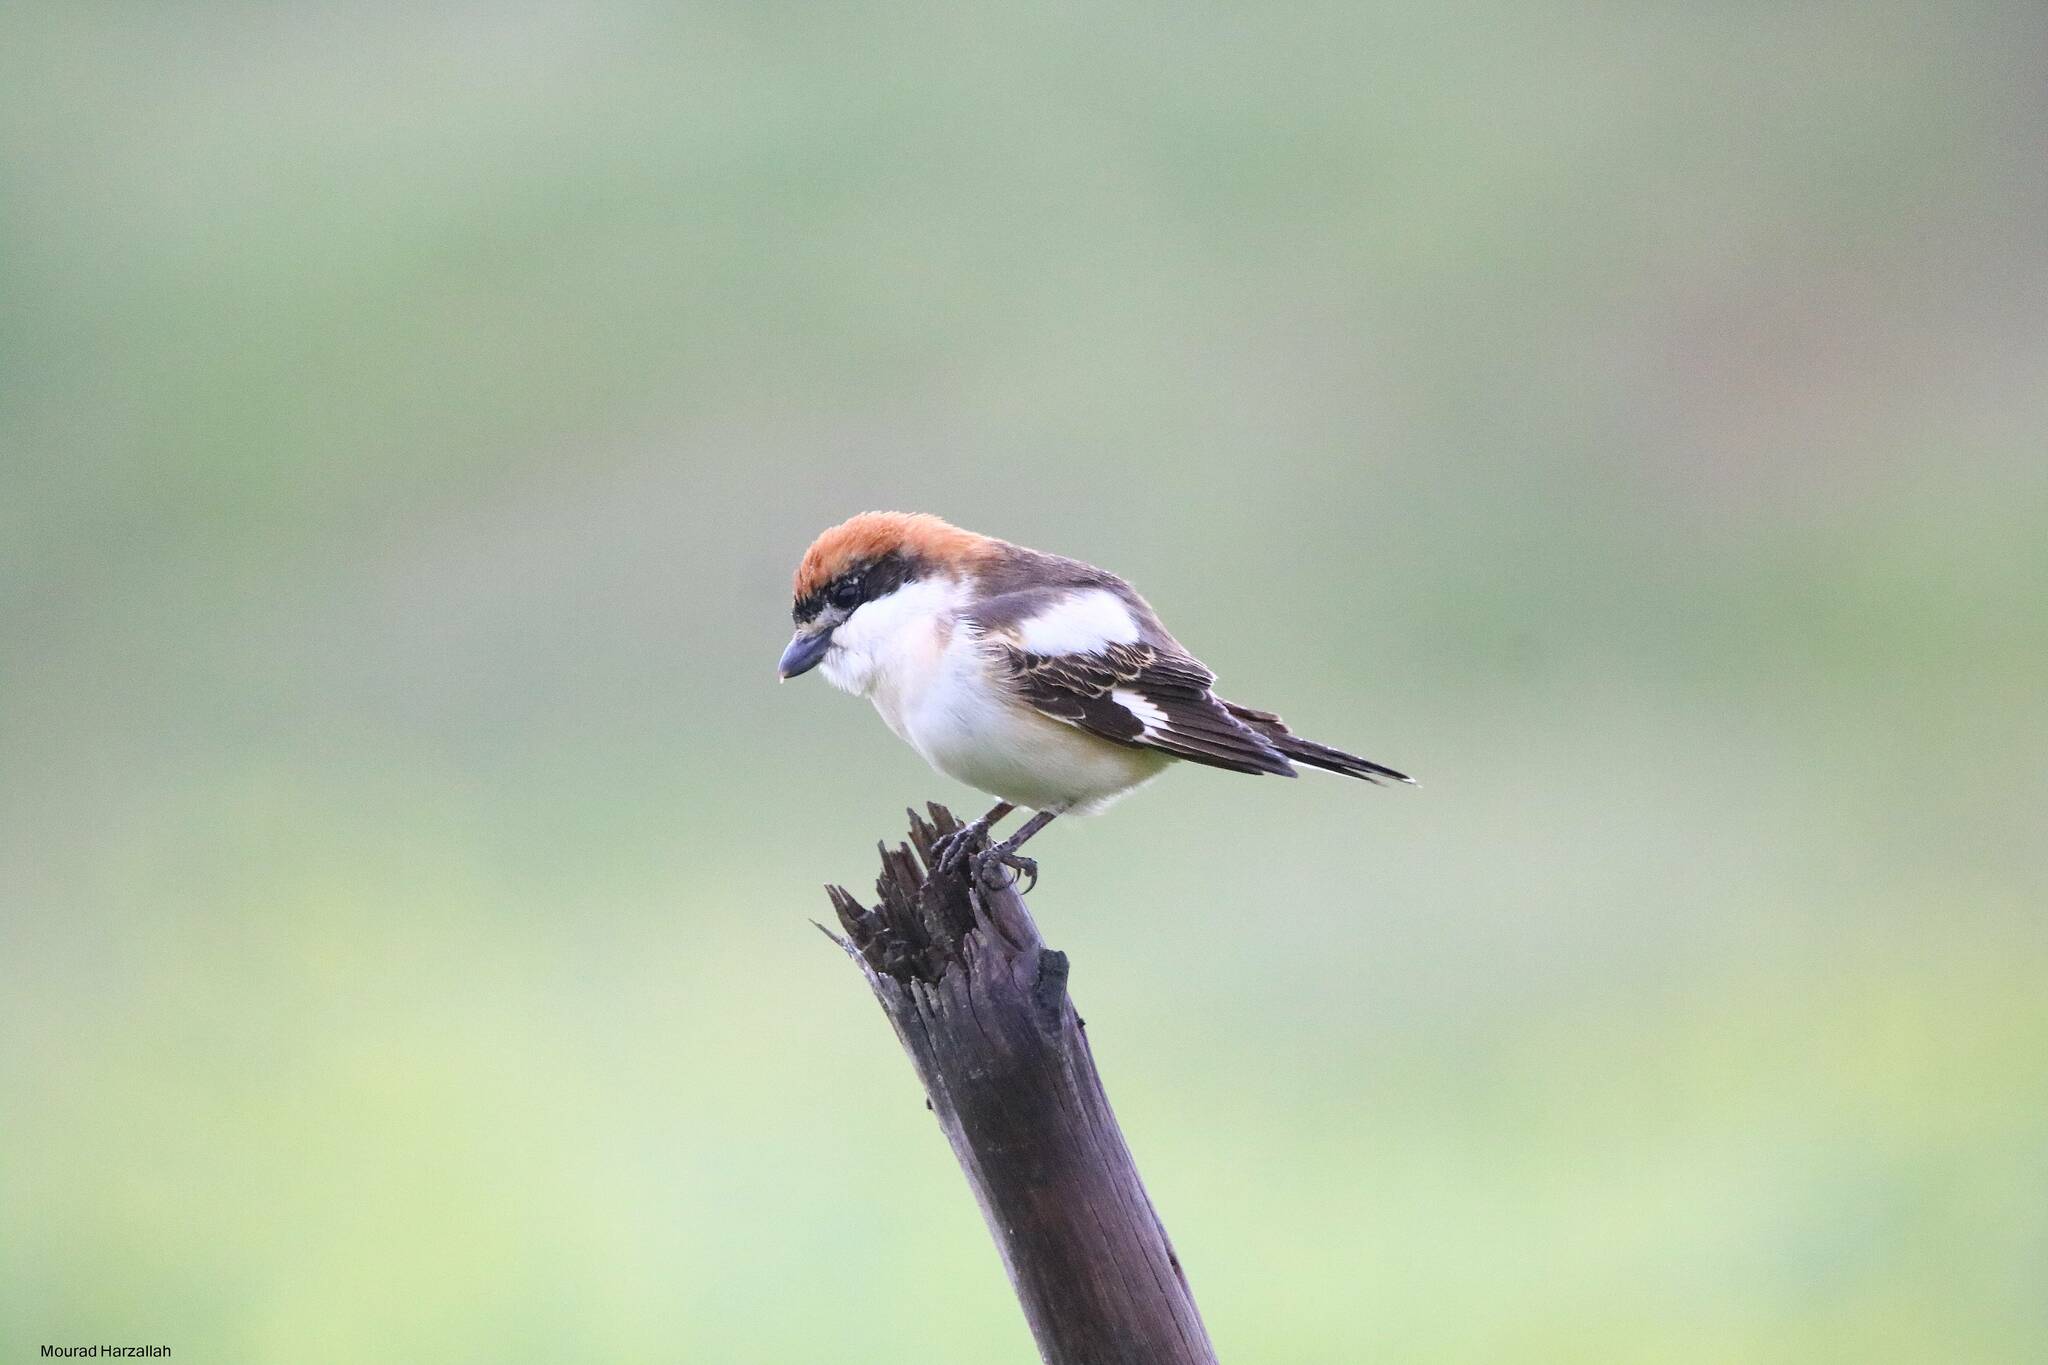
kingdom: Animalia
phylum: Chordata
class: Aves
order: Passeriformes
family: Laniidae
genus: Lanius
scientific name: Lanius senator
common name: Woodchat shrike
